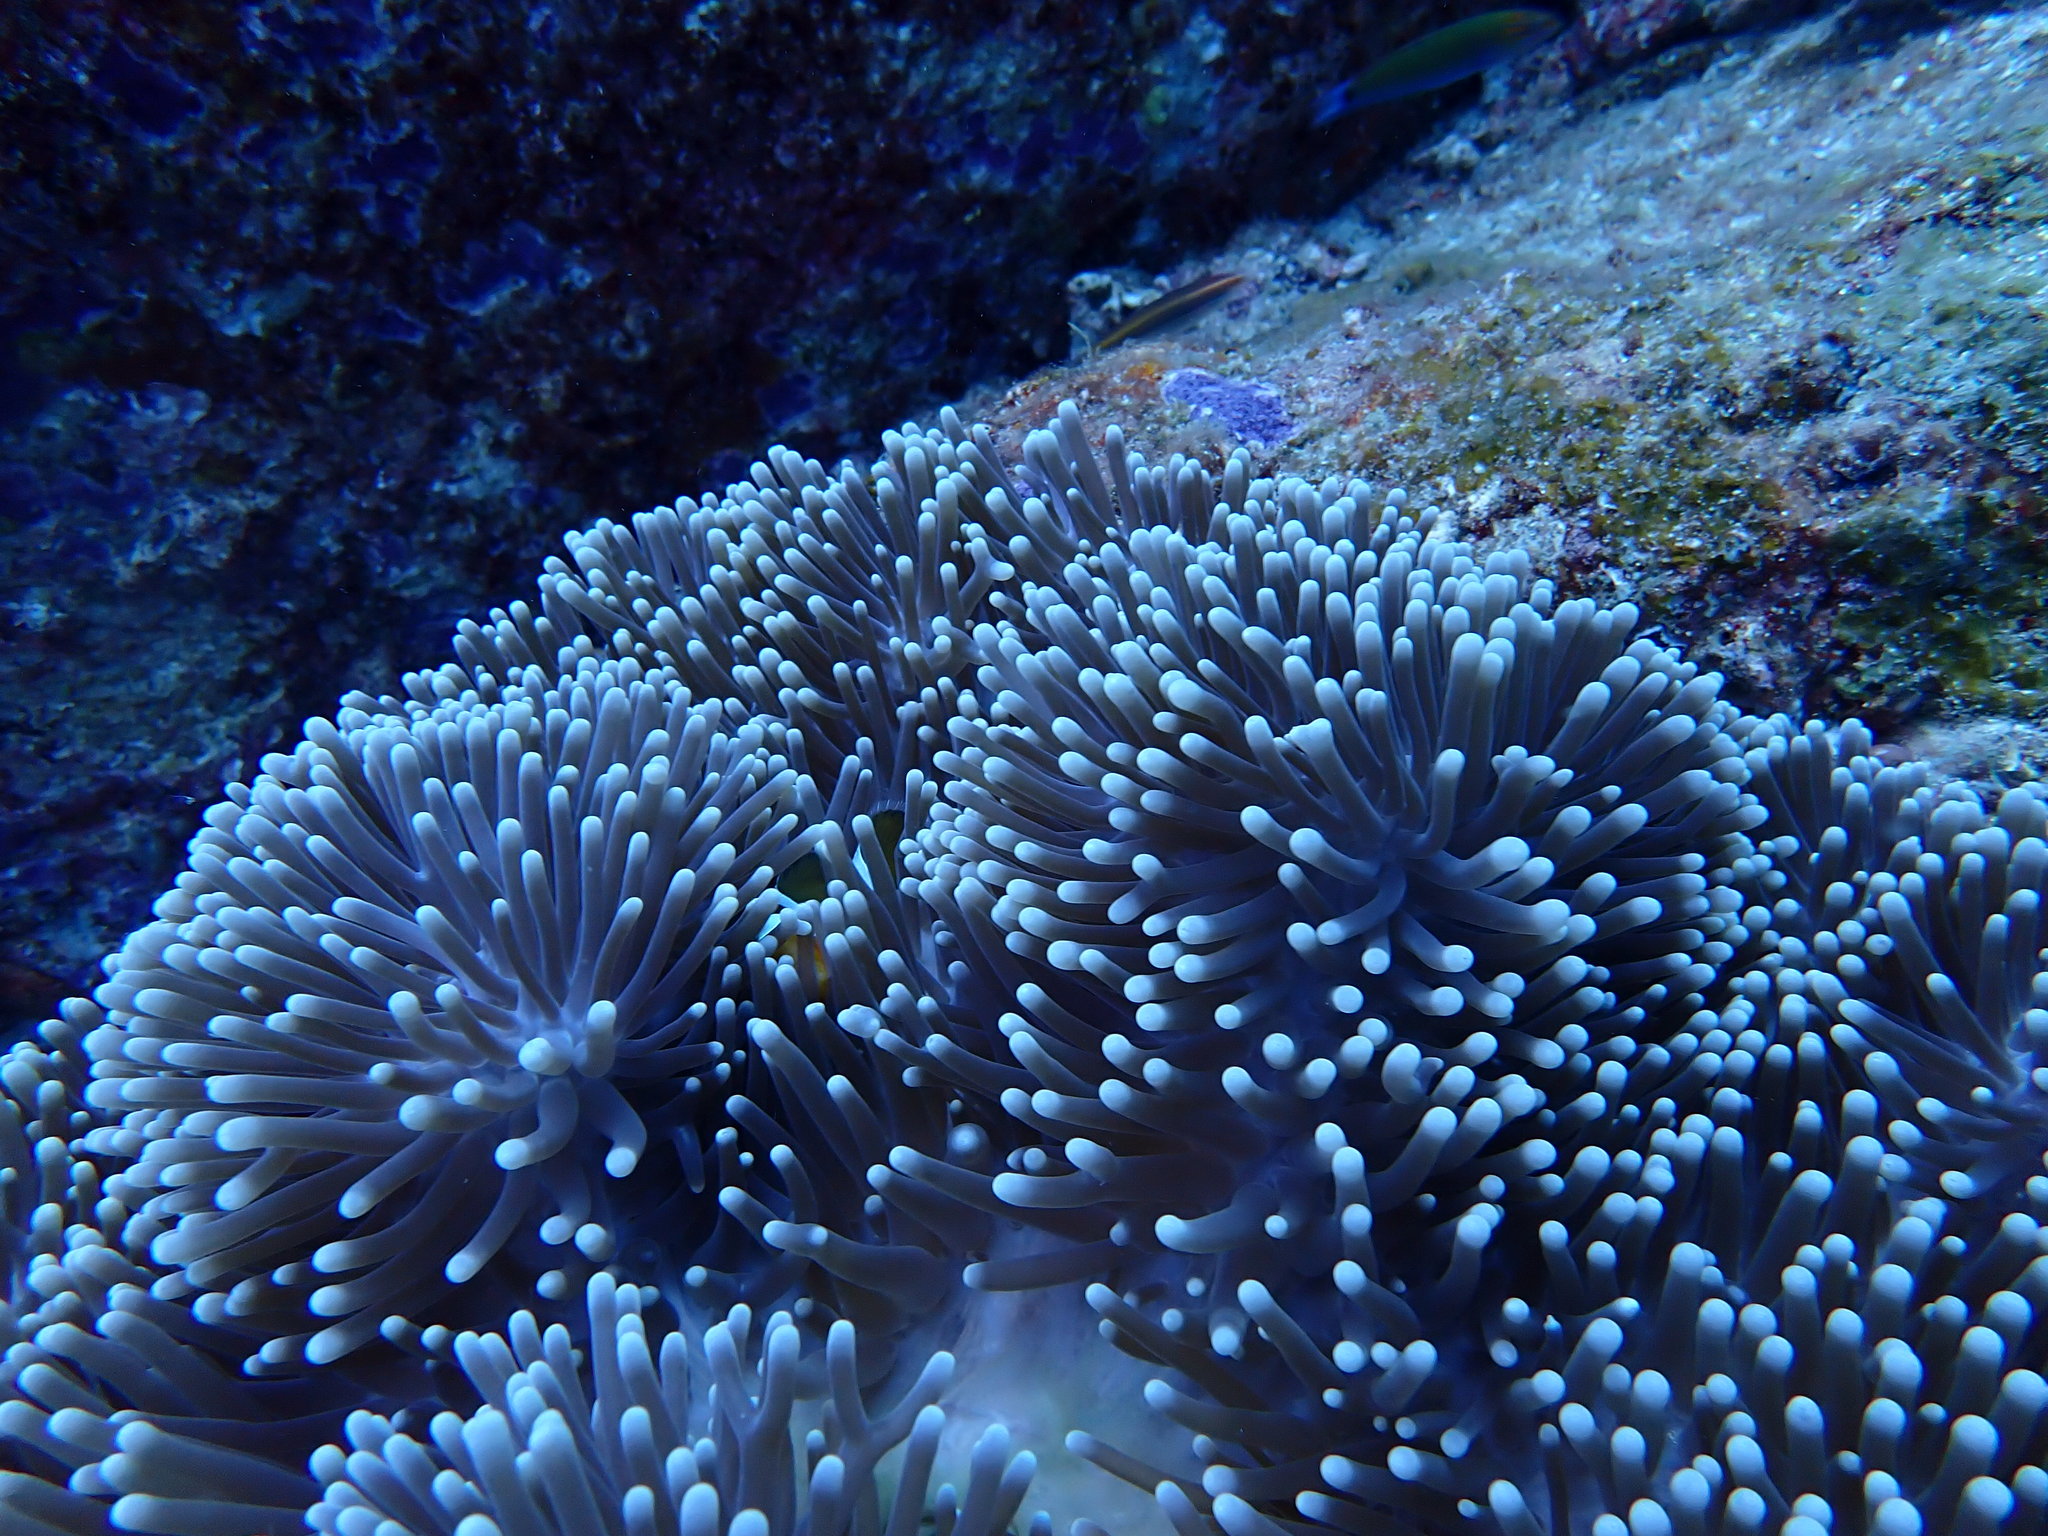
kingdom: Animalia
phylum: Cnidaria
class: Anthozoa
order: Actiniaria
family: Stichodactylidae
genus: Radianthus
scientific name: Radianthus magnifica
